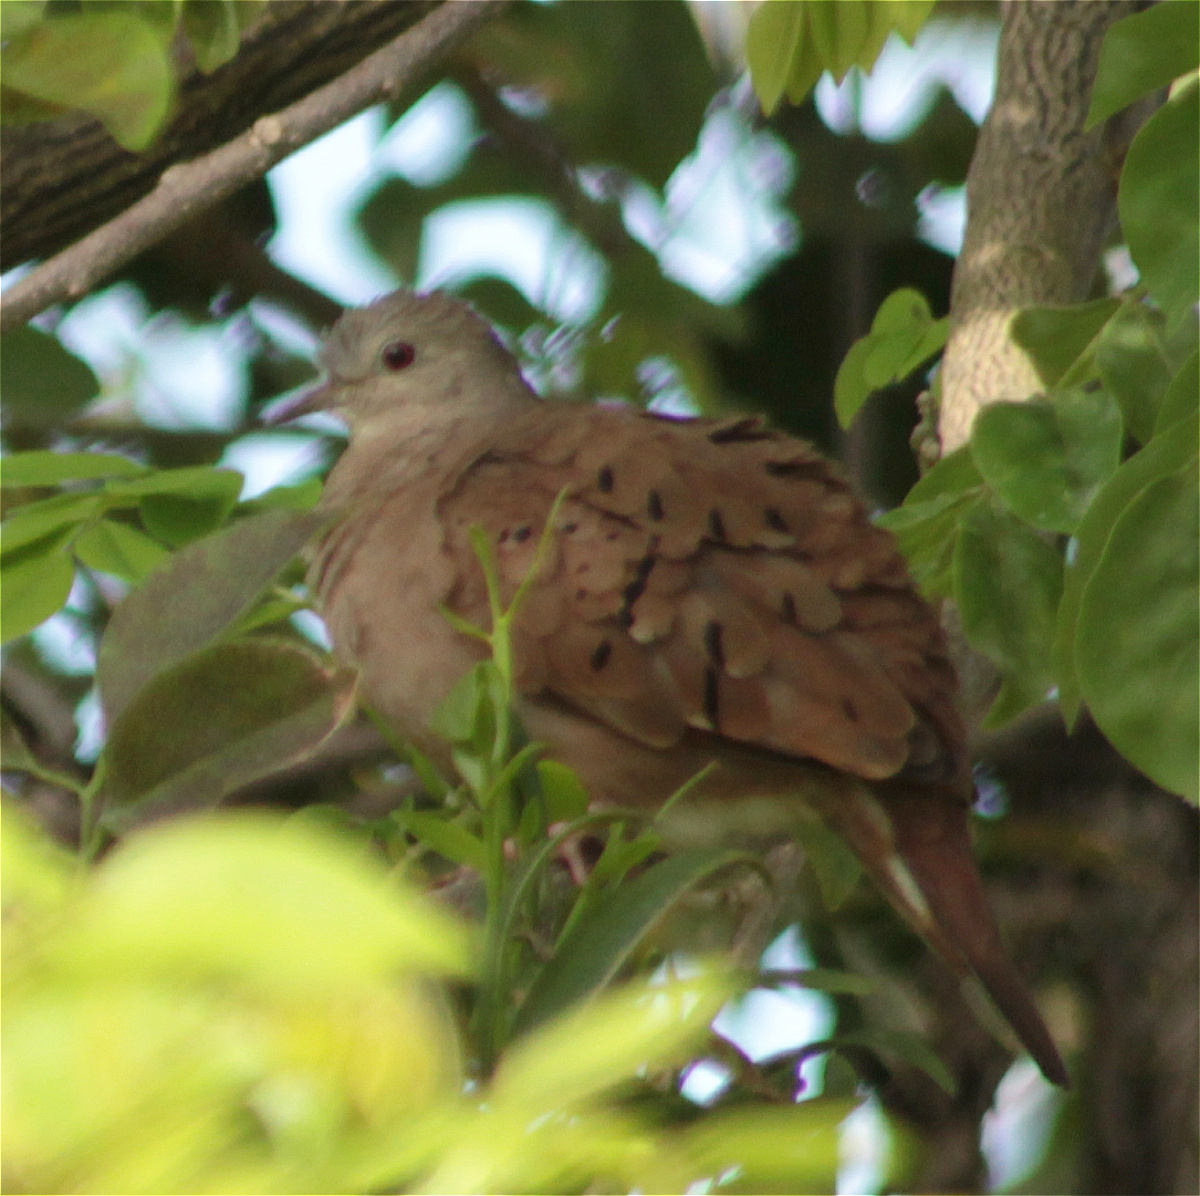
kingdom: Animalia
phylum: Chordata
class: Aves
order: Columbiformes
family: Columbidae
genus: Columbina
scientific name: Columbina talpacoti
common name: Ruddy ground dove
